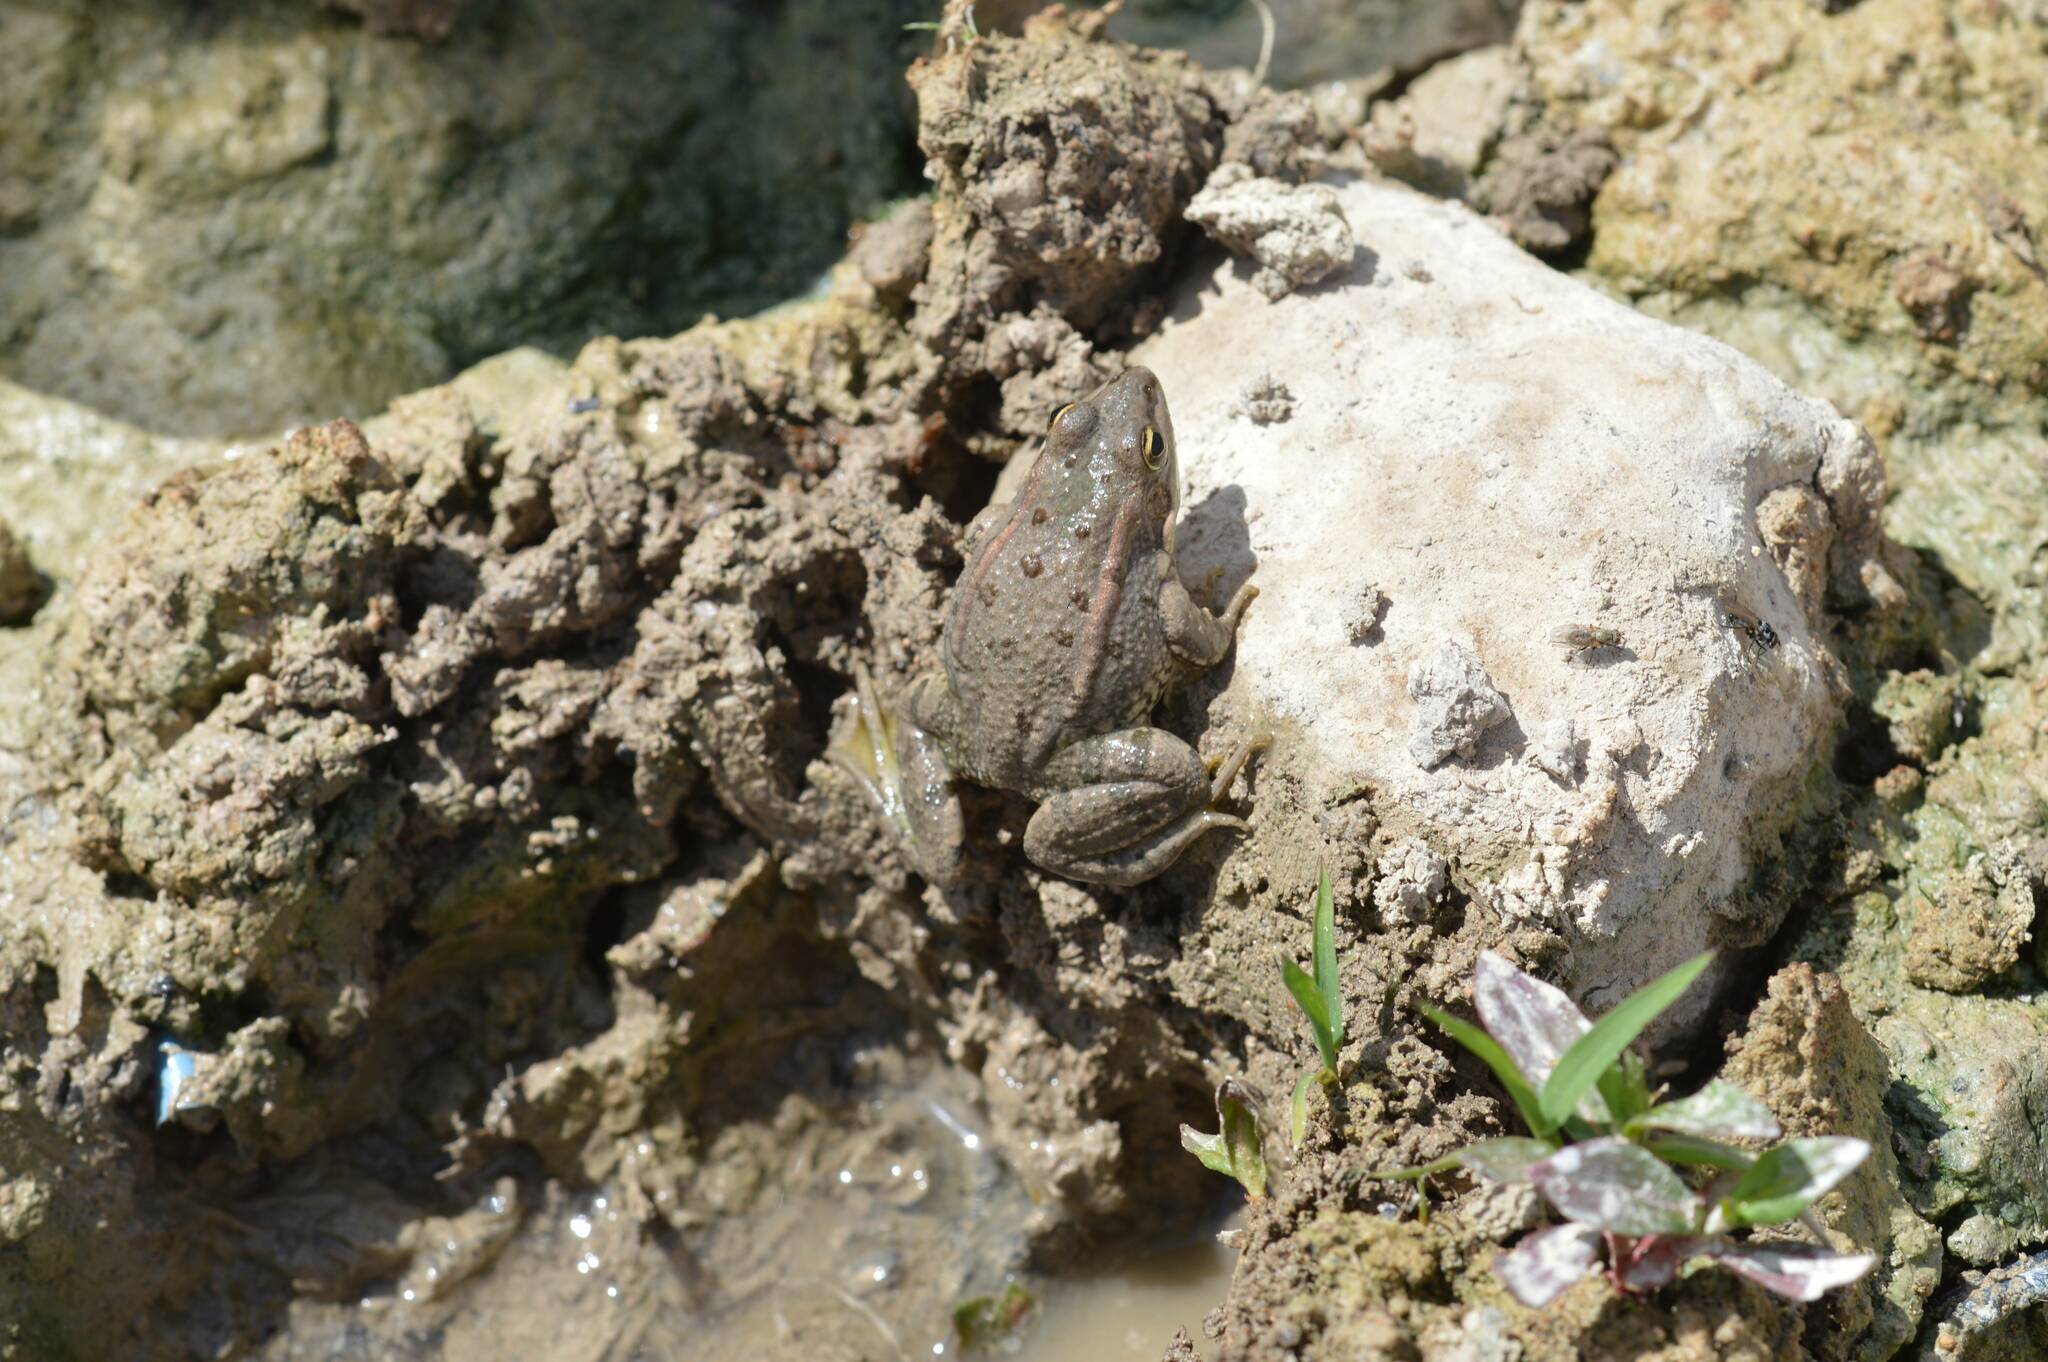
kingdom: Animalia
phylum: Chordata
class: Amphibia
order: Anura
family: Ranidae
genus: Pelophylax
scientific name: Pelophylax saharicus
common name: Sahara frog
